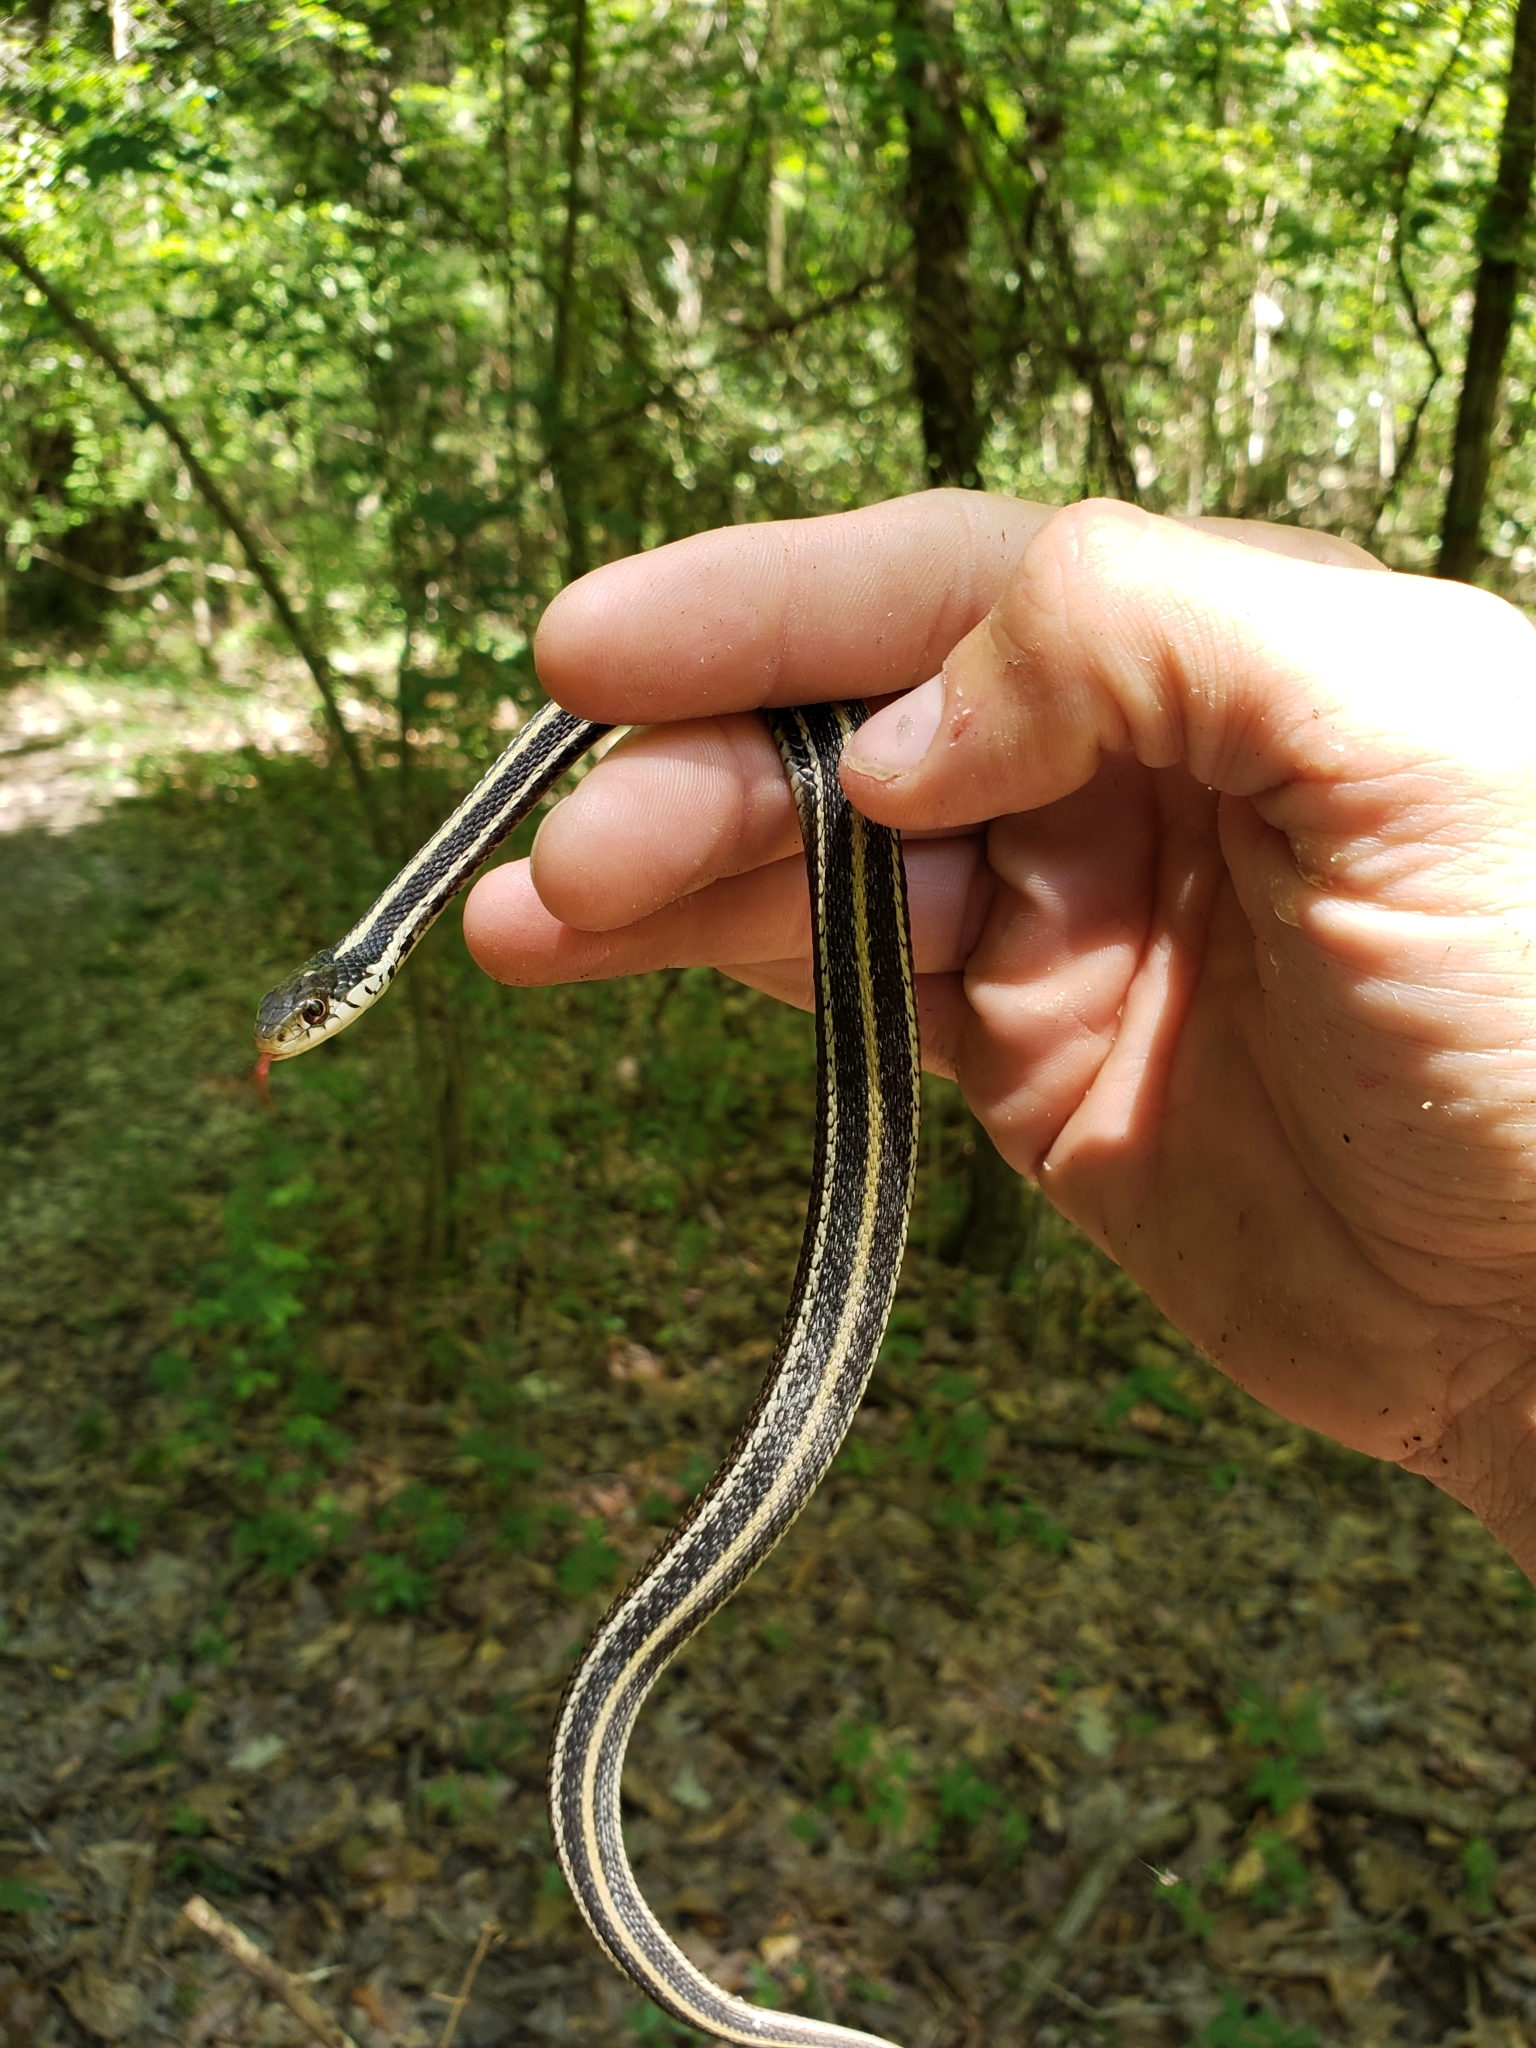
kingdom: Animalia
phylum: Chordata
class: Squamata
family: Colubridae
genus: Thamnophis
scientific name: Thamnophis proximus
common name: Western ribbon snake
